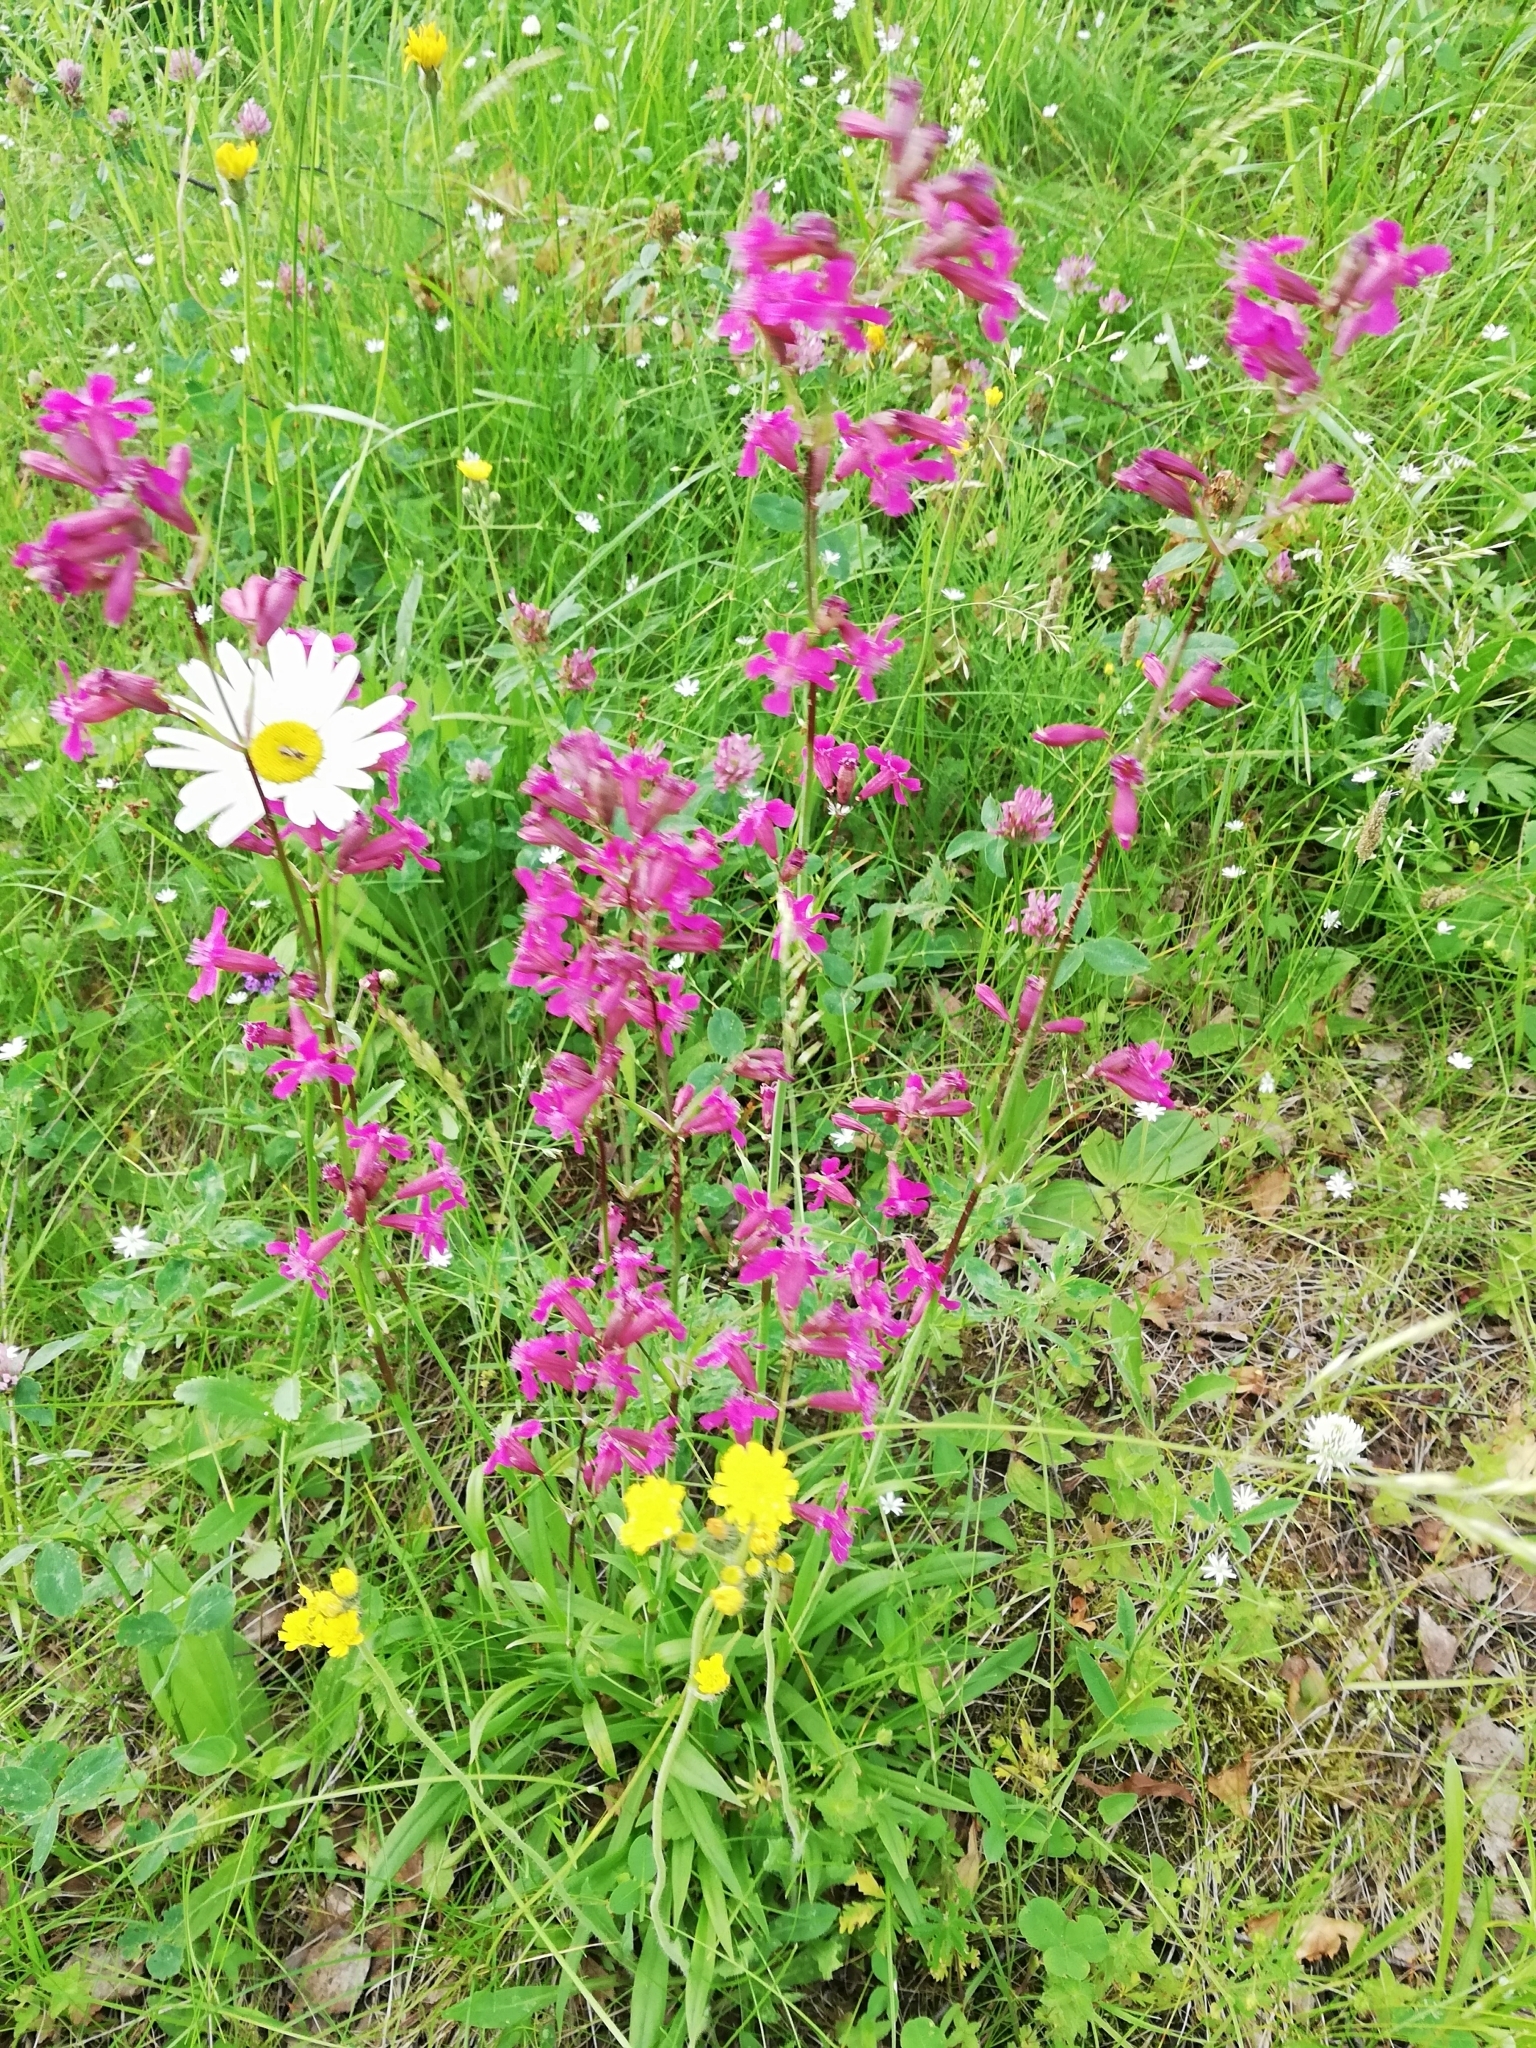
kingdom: Plantae
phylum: Tracheophyta
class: Magnoliopsida
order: Caryophyllales
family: Caryophyllaceae
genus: Viscaria
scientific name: Viscaria vulgaris
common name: Clammy campion
